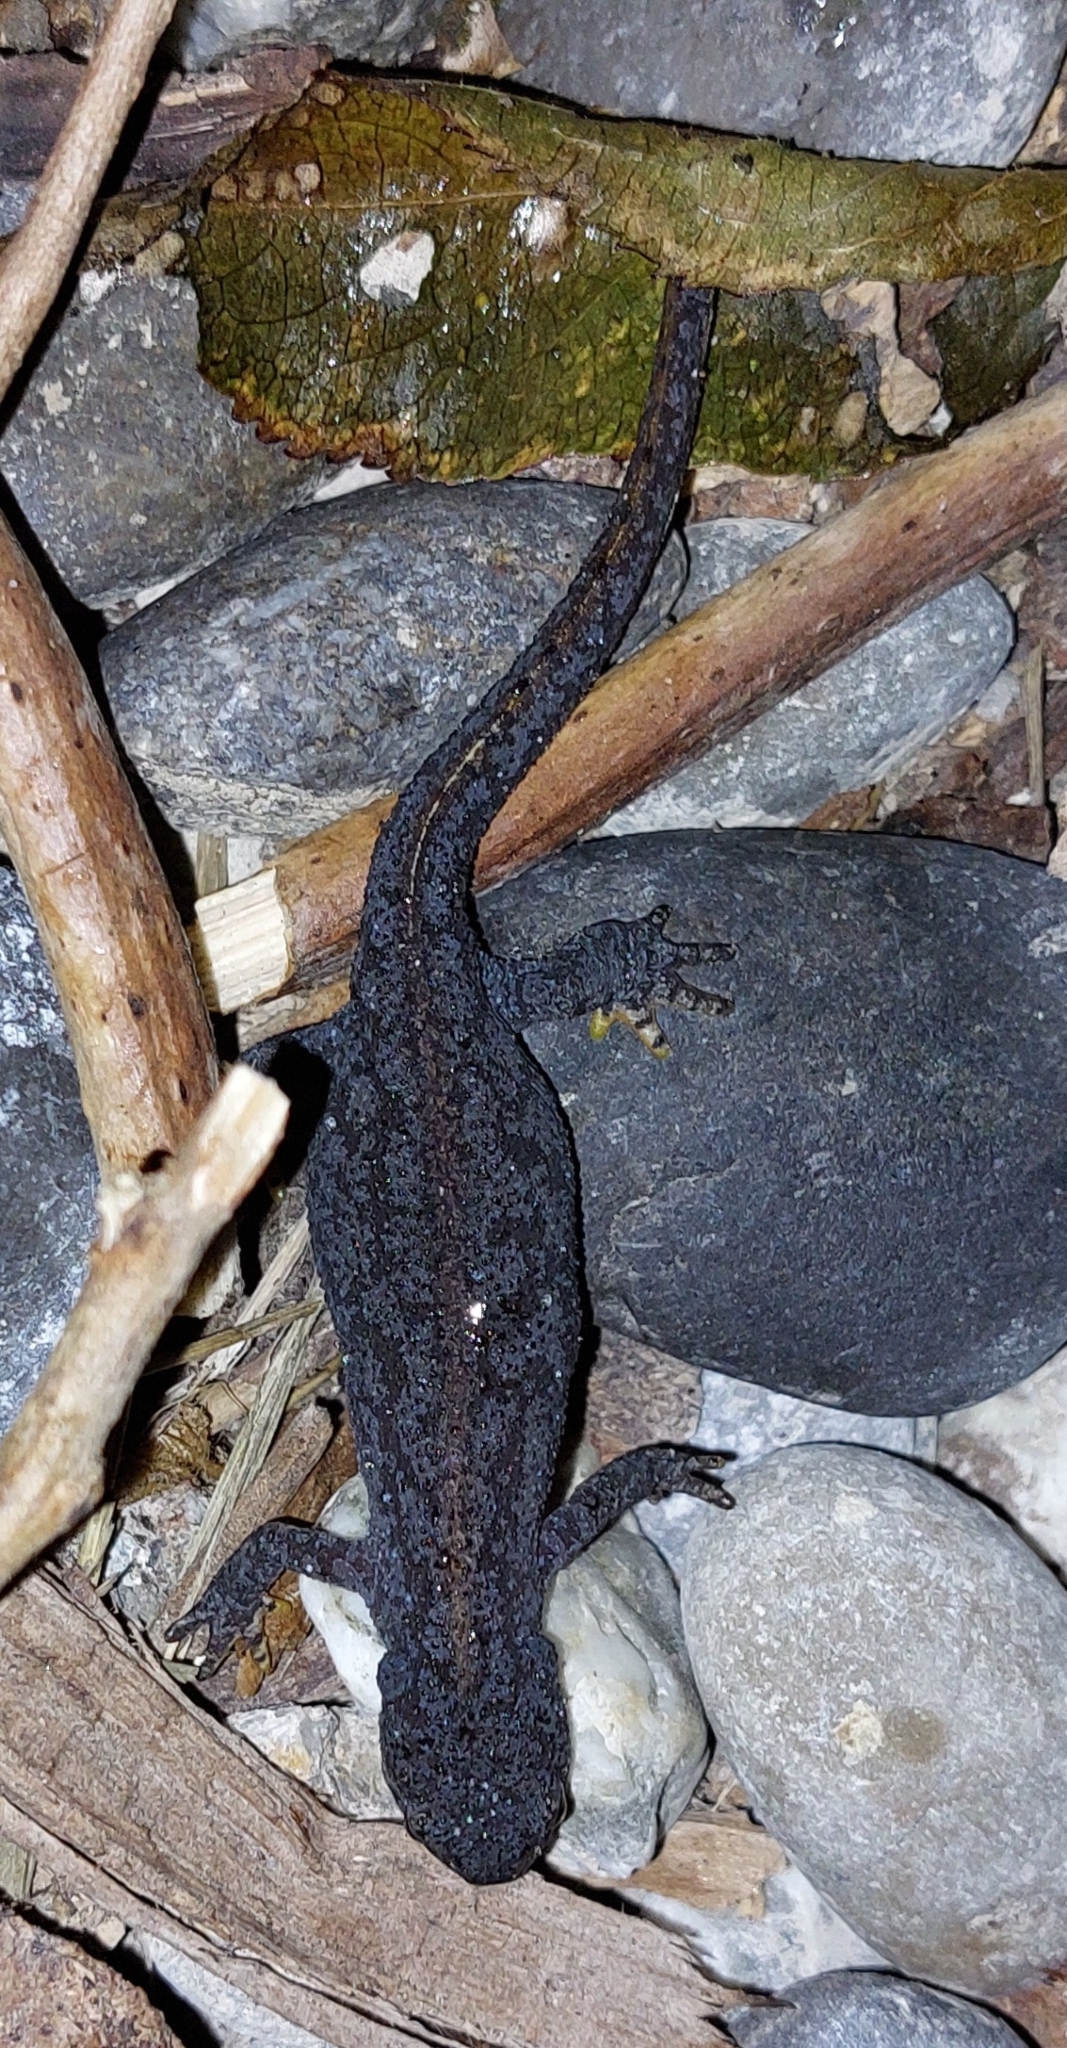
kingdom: Animalia
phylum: Chordata
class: Amphibia
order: Caudata
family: Salamandridae
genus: Ichthyosaura
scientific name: Ichthyosaura alpestris
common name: Alpine newt
